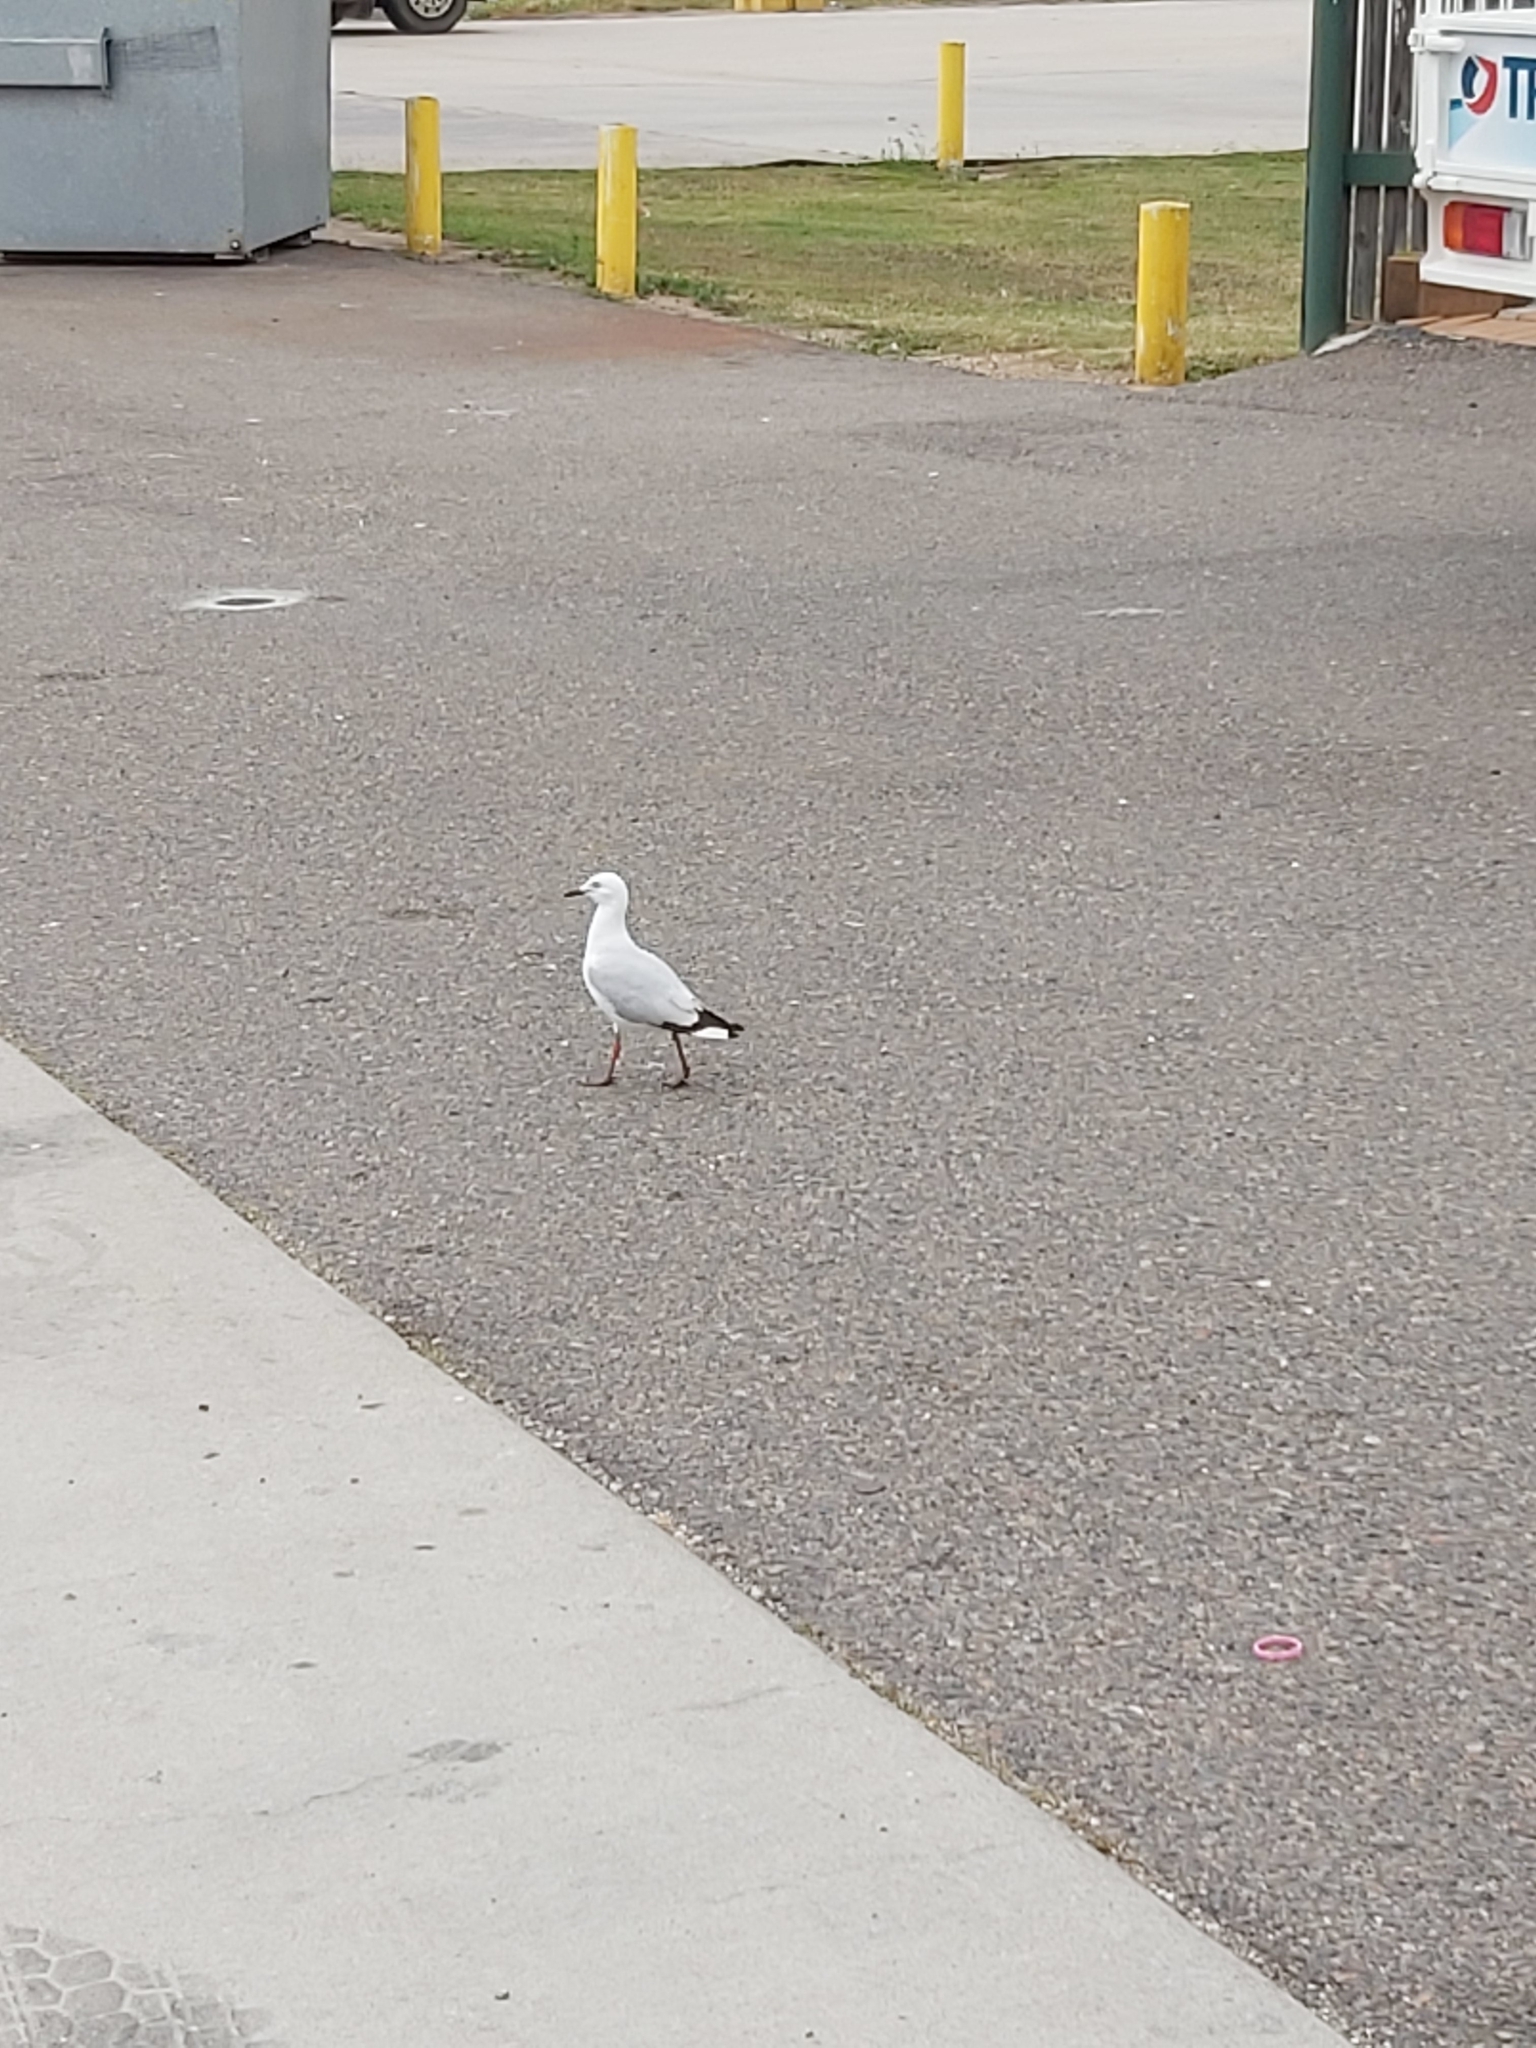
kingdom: Animalia
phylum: Chordata
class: Aves
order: Charadriiformes
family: Laridae
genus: Chroicocephalus
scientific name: Chroicocephalus novaehollandiae
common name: Silver gull
